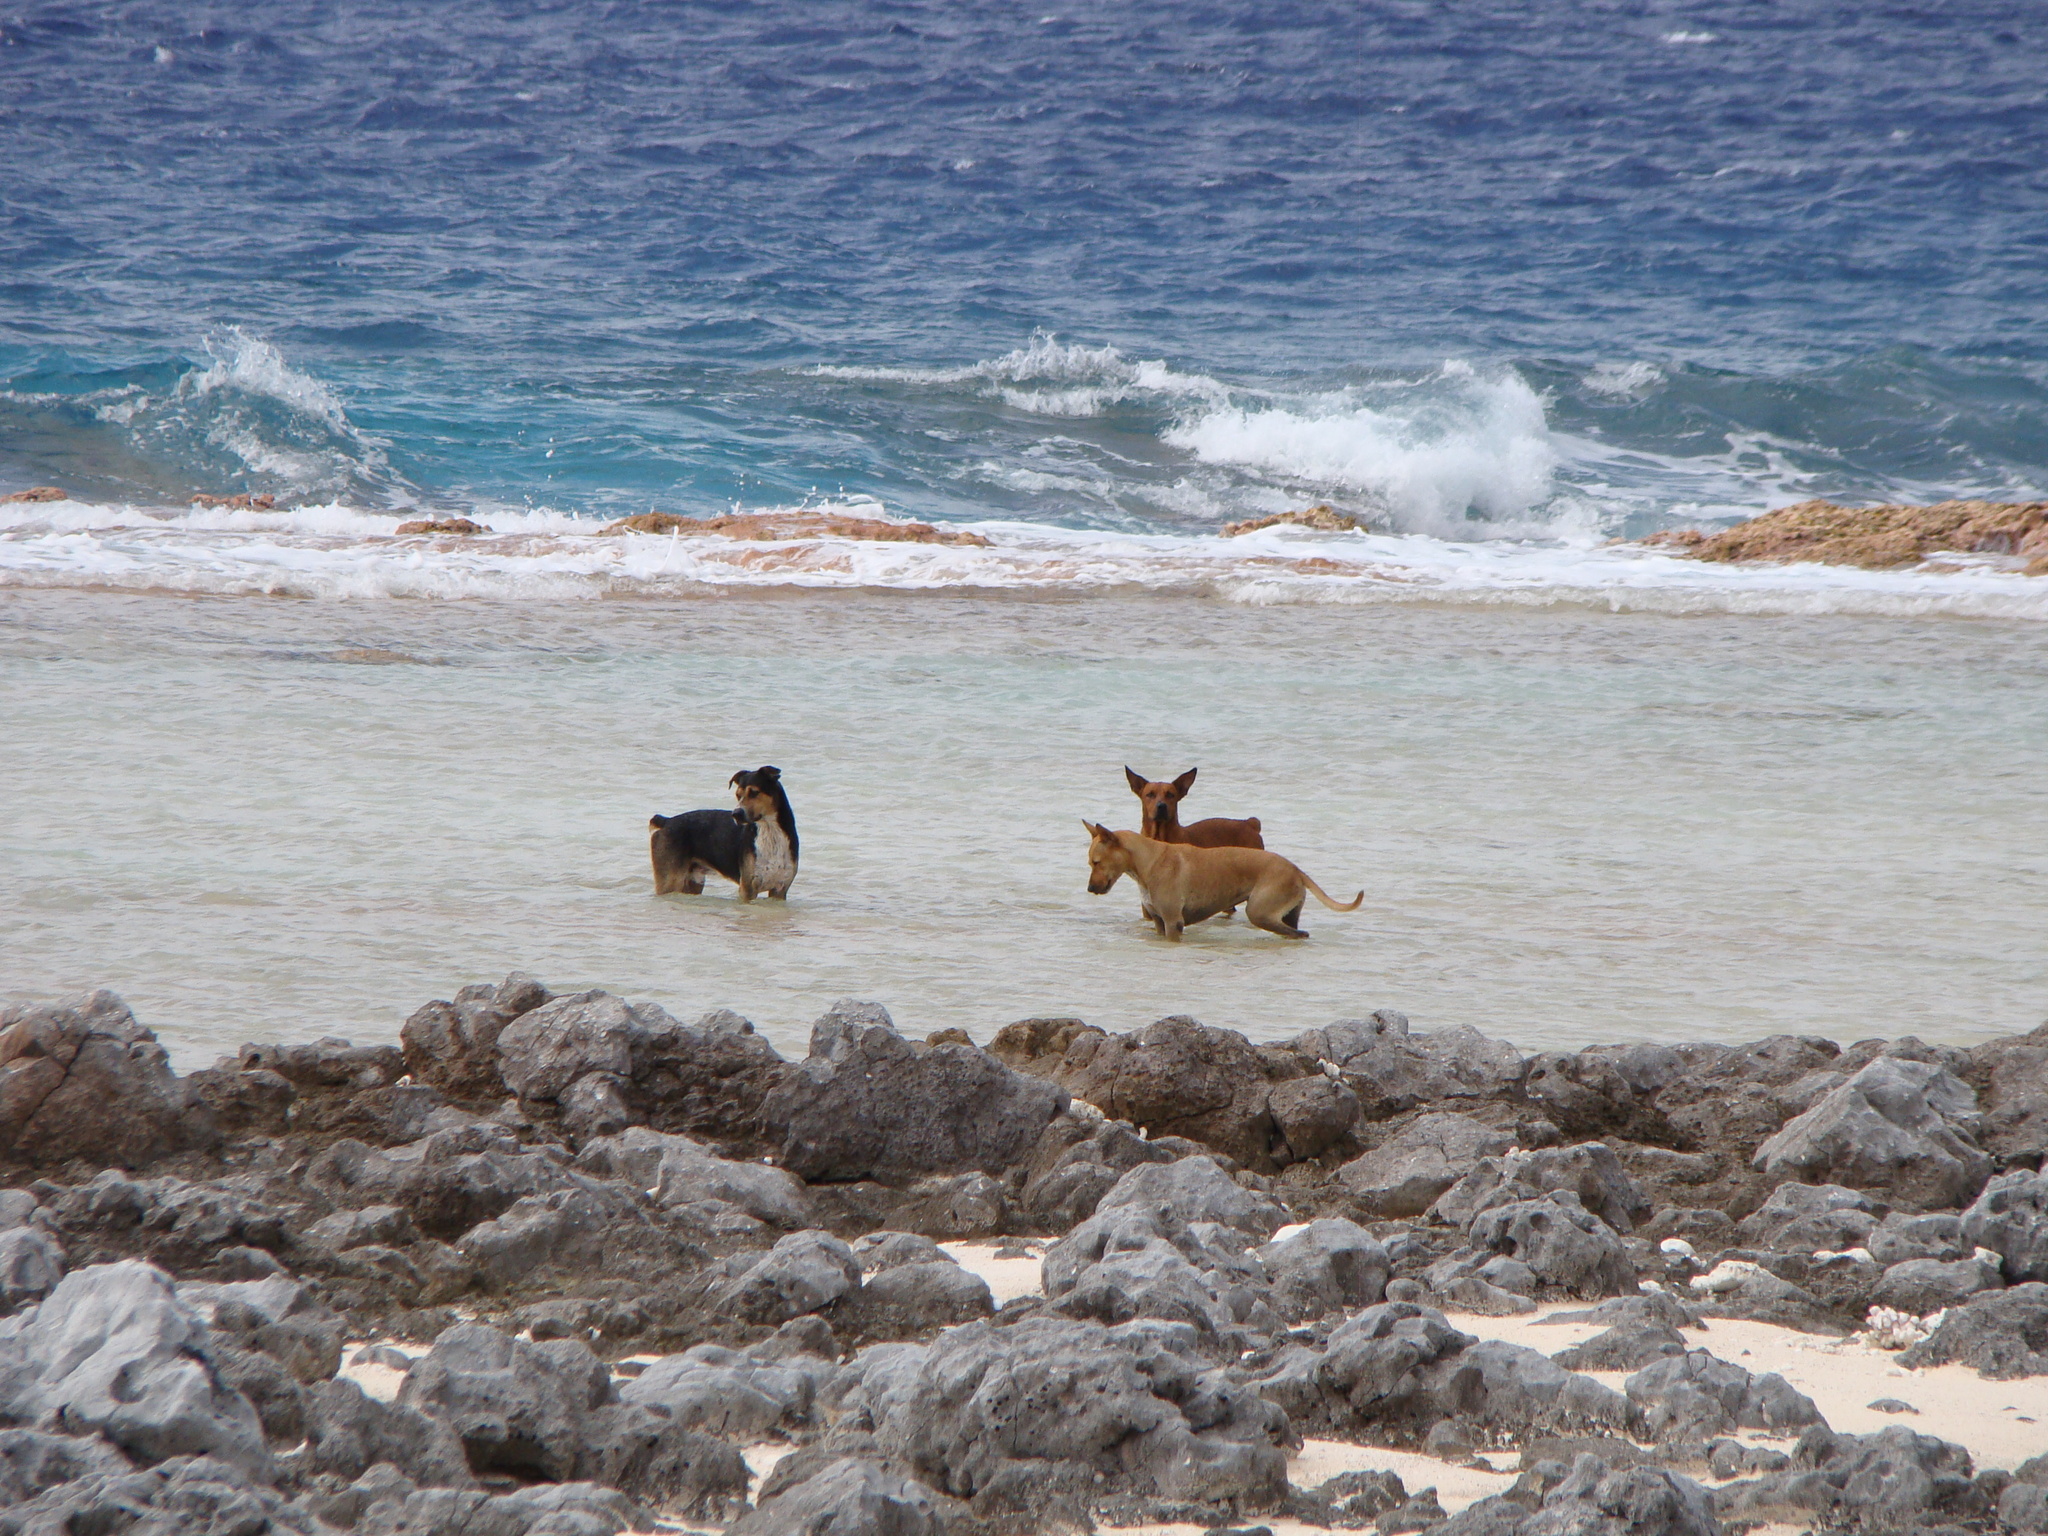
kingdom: Animalia
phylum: Chordata
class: Mammalia
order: Carnivora
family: Canidae
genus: Canis
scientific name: Canis lupus
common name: Gray wolf
